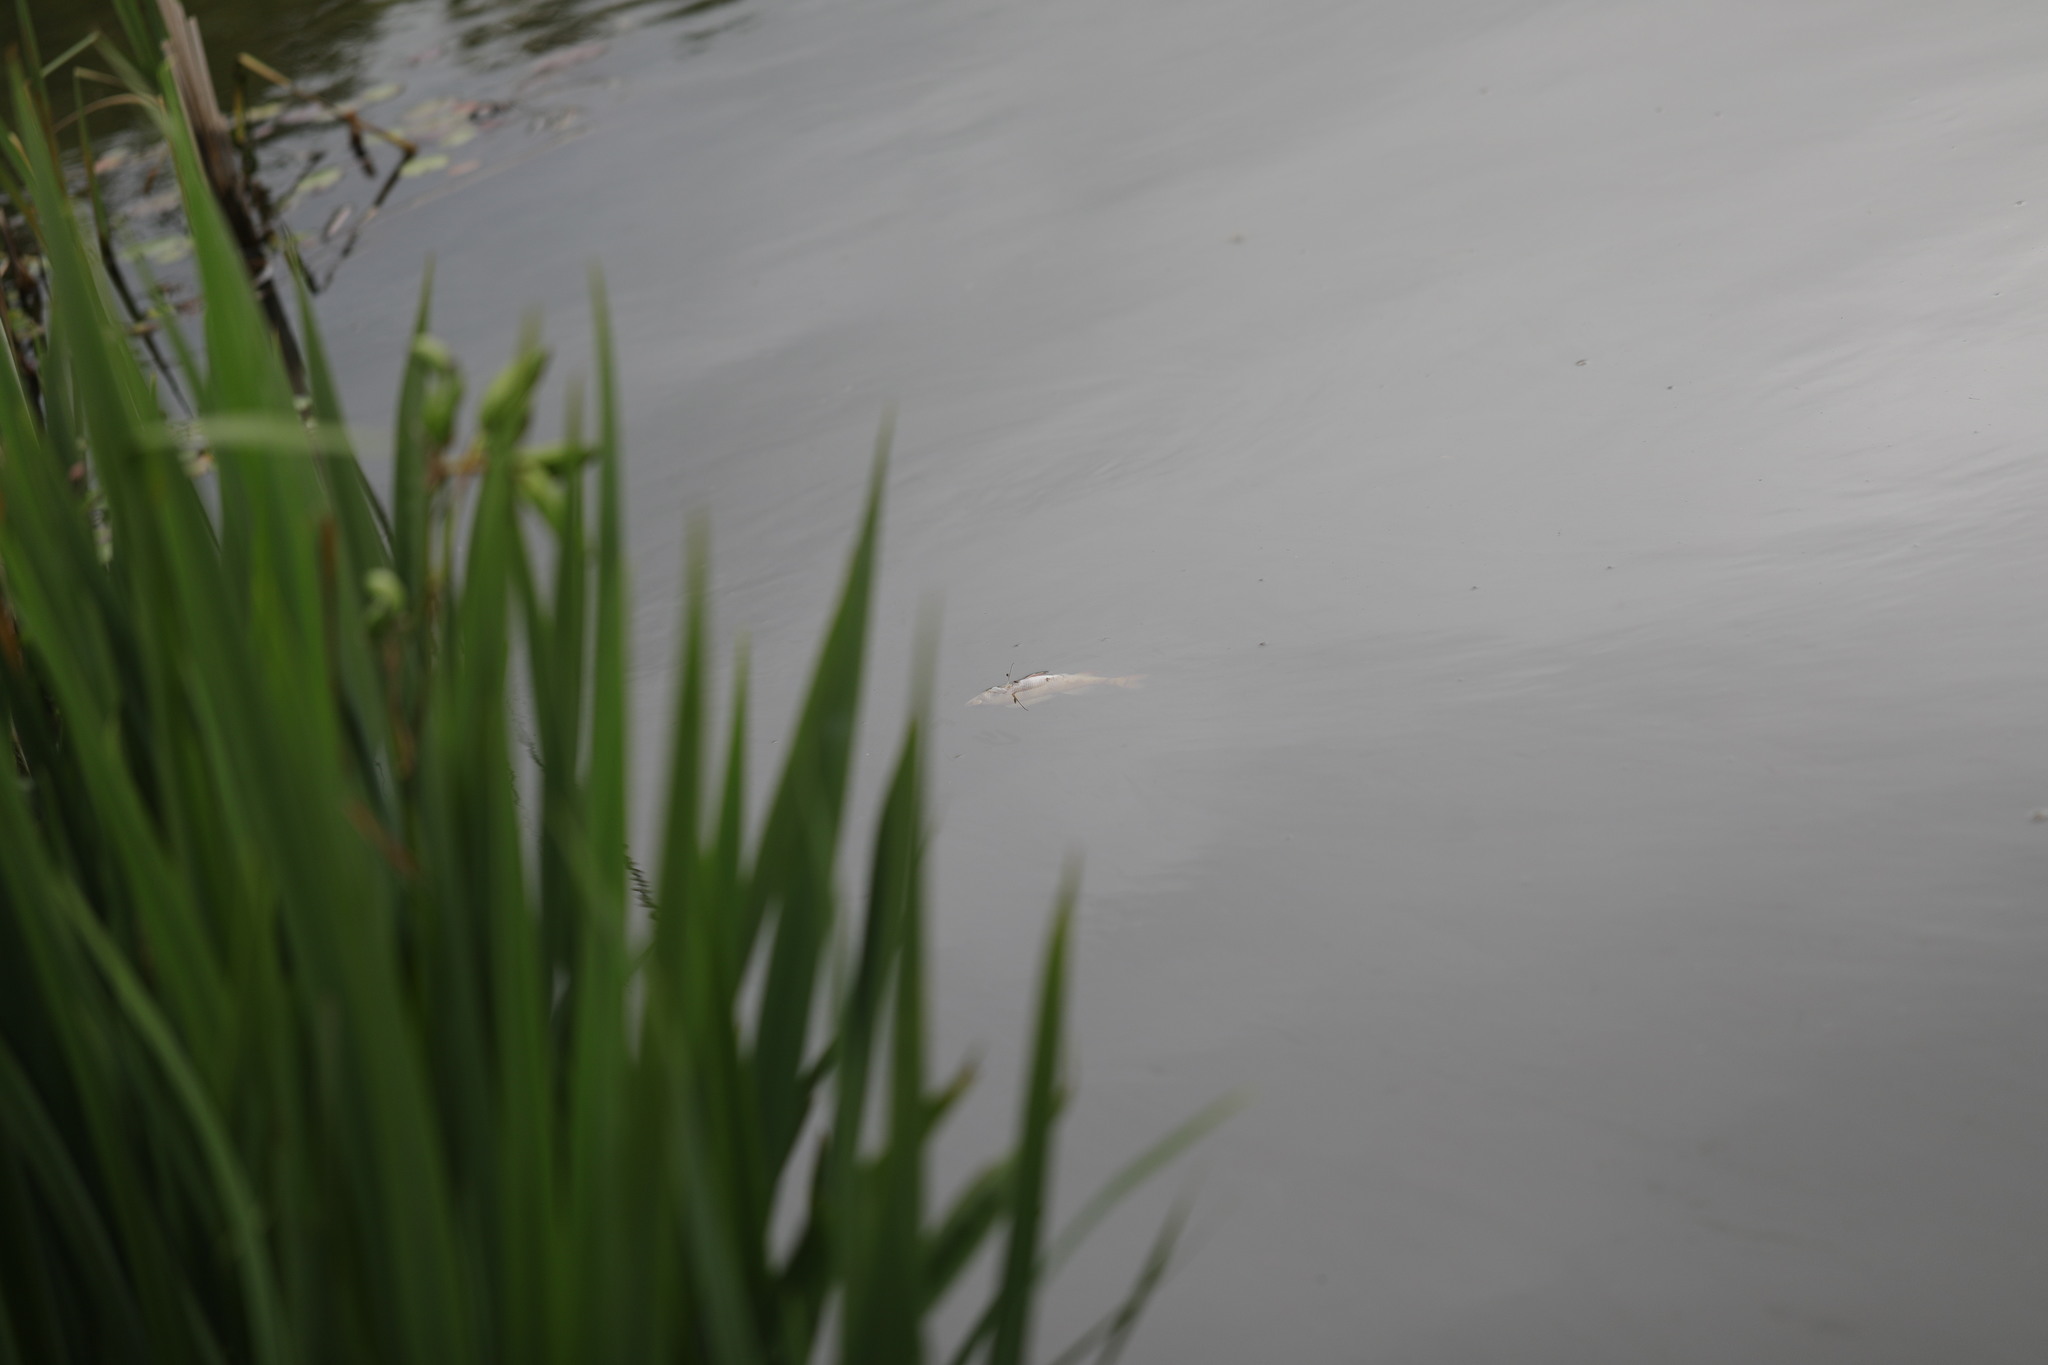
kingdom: Animalia
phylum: Chordata
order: Perciformes
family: Percidae
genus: Perca
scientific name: Perca fluviatilis
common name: Perch
